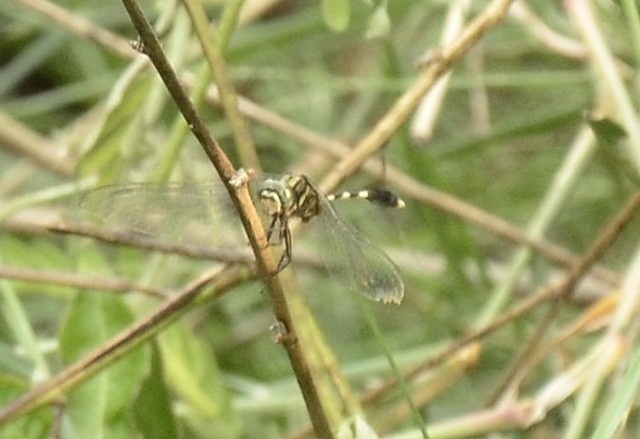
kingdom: Animalia
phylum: Arthropoda
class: Insecta
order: Odonata
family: Libellulidae
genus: Orthetrum
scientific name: Orthetrum sabina
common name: Slender skimmer
